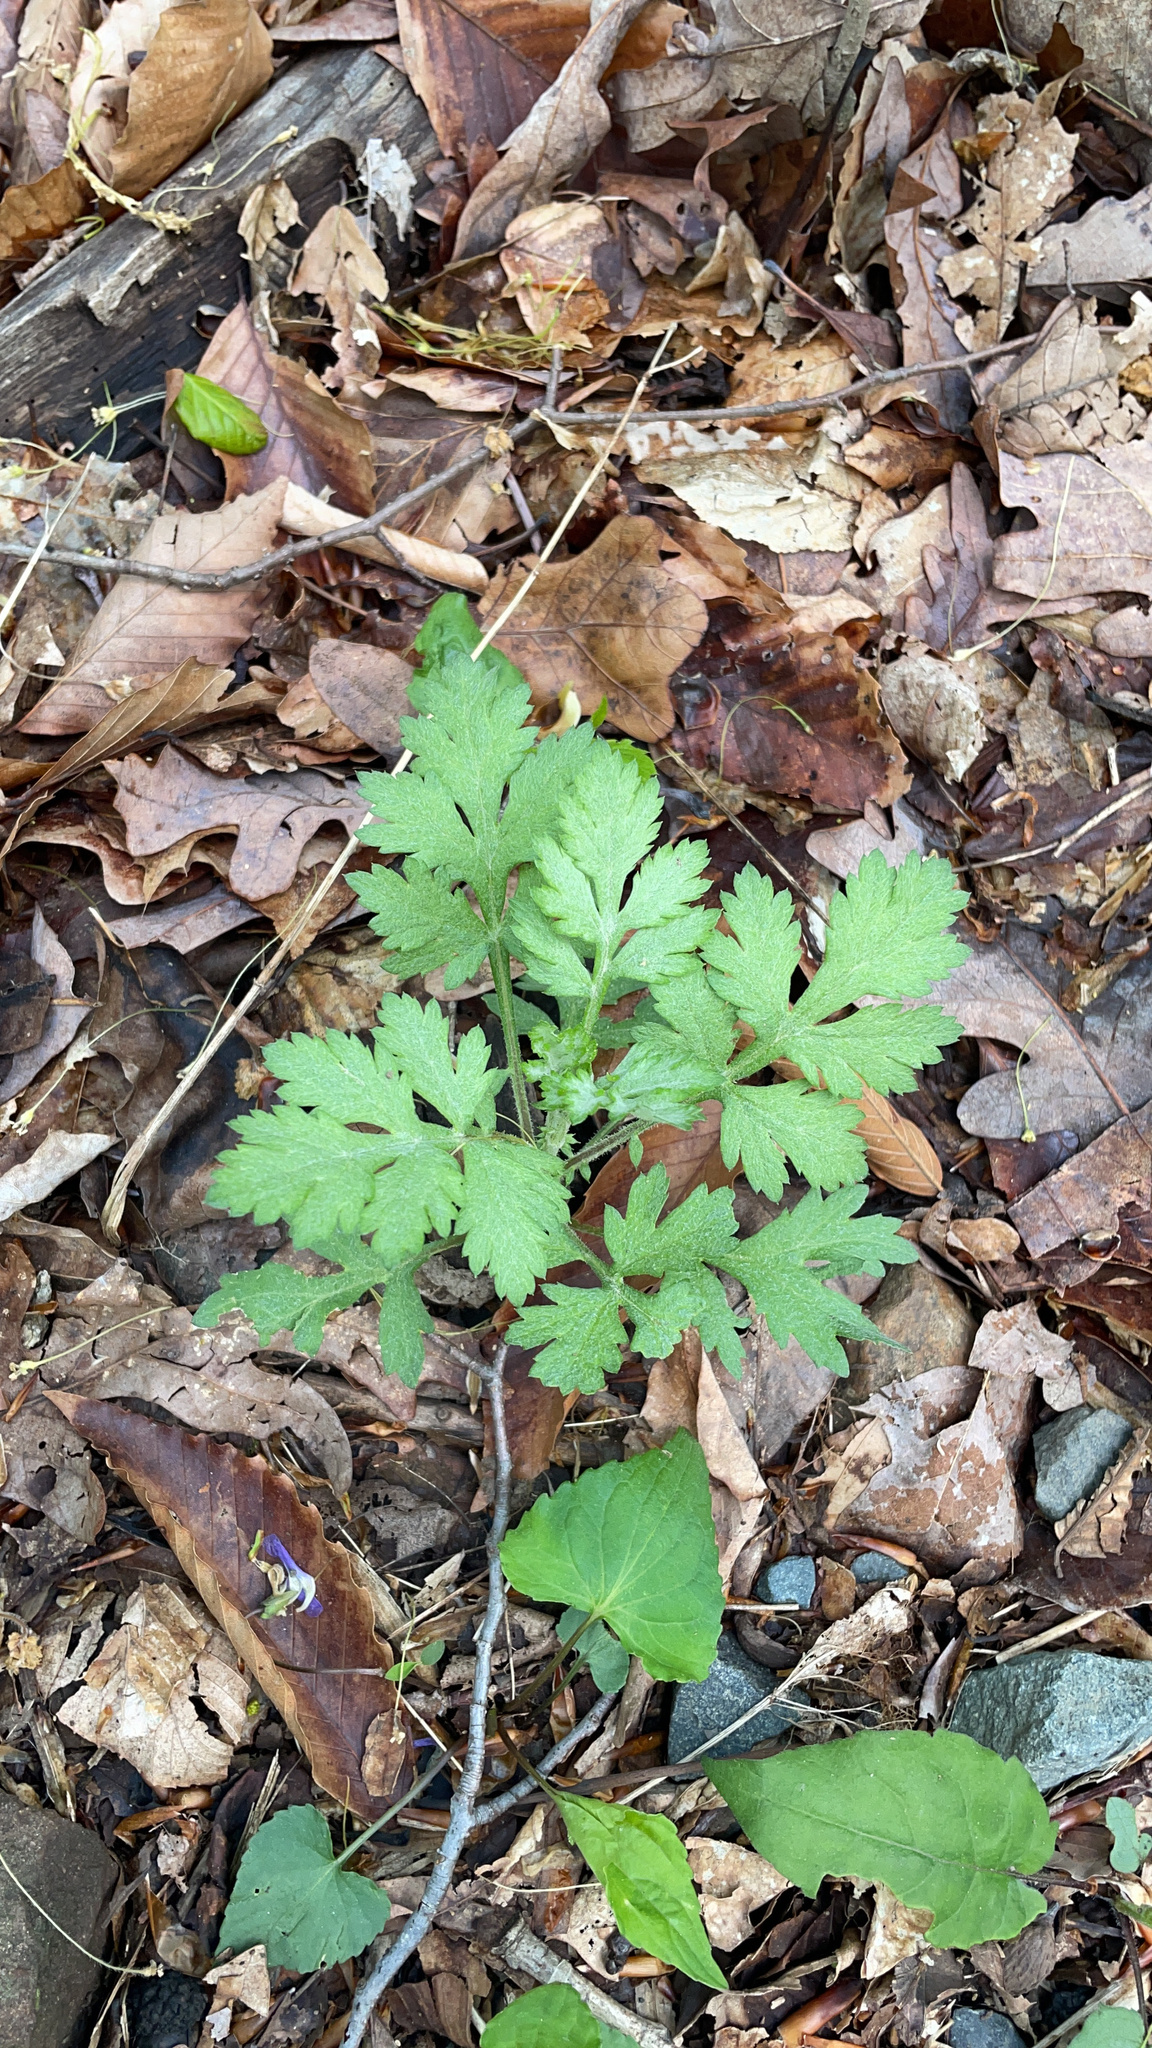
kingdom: Plantae
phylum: Tracheophyta
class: Magnoliopsida
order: Asterales
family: Asteraceae
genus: Artemisia
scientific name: Artemisia vulgaris
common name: Mugwort
